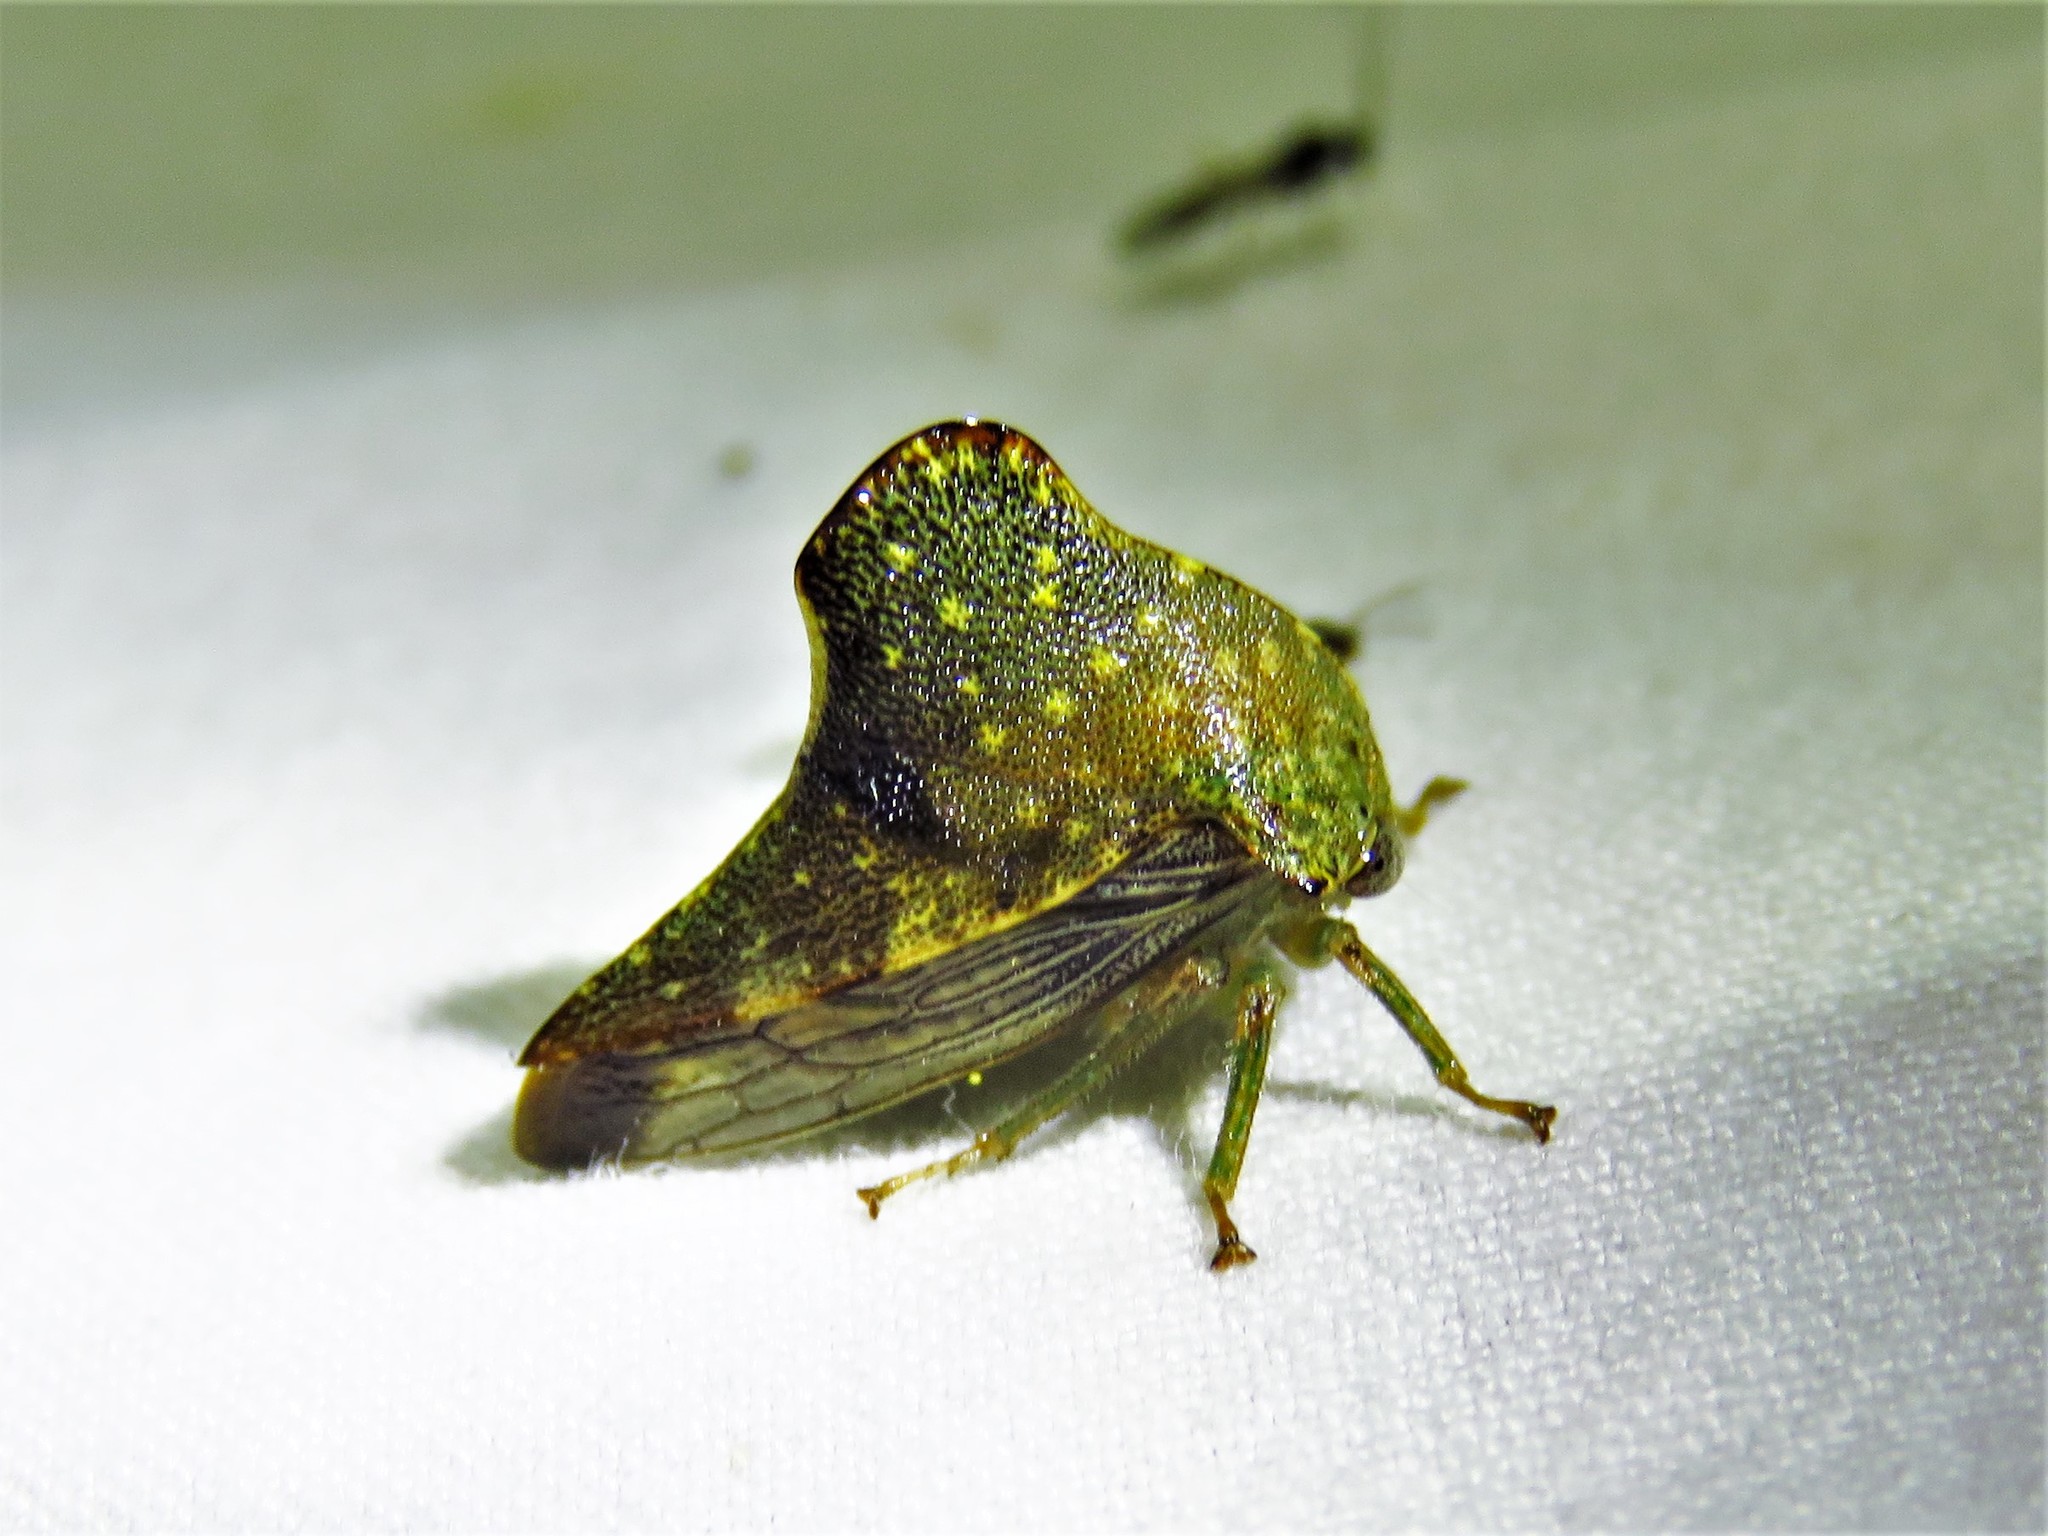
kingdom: Animalia
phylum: Arthropoda
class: Insecta
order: Hemiptera
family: Membracidae
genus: Telamona
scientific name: Telamona monticola
